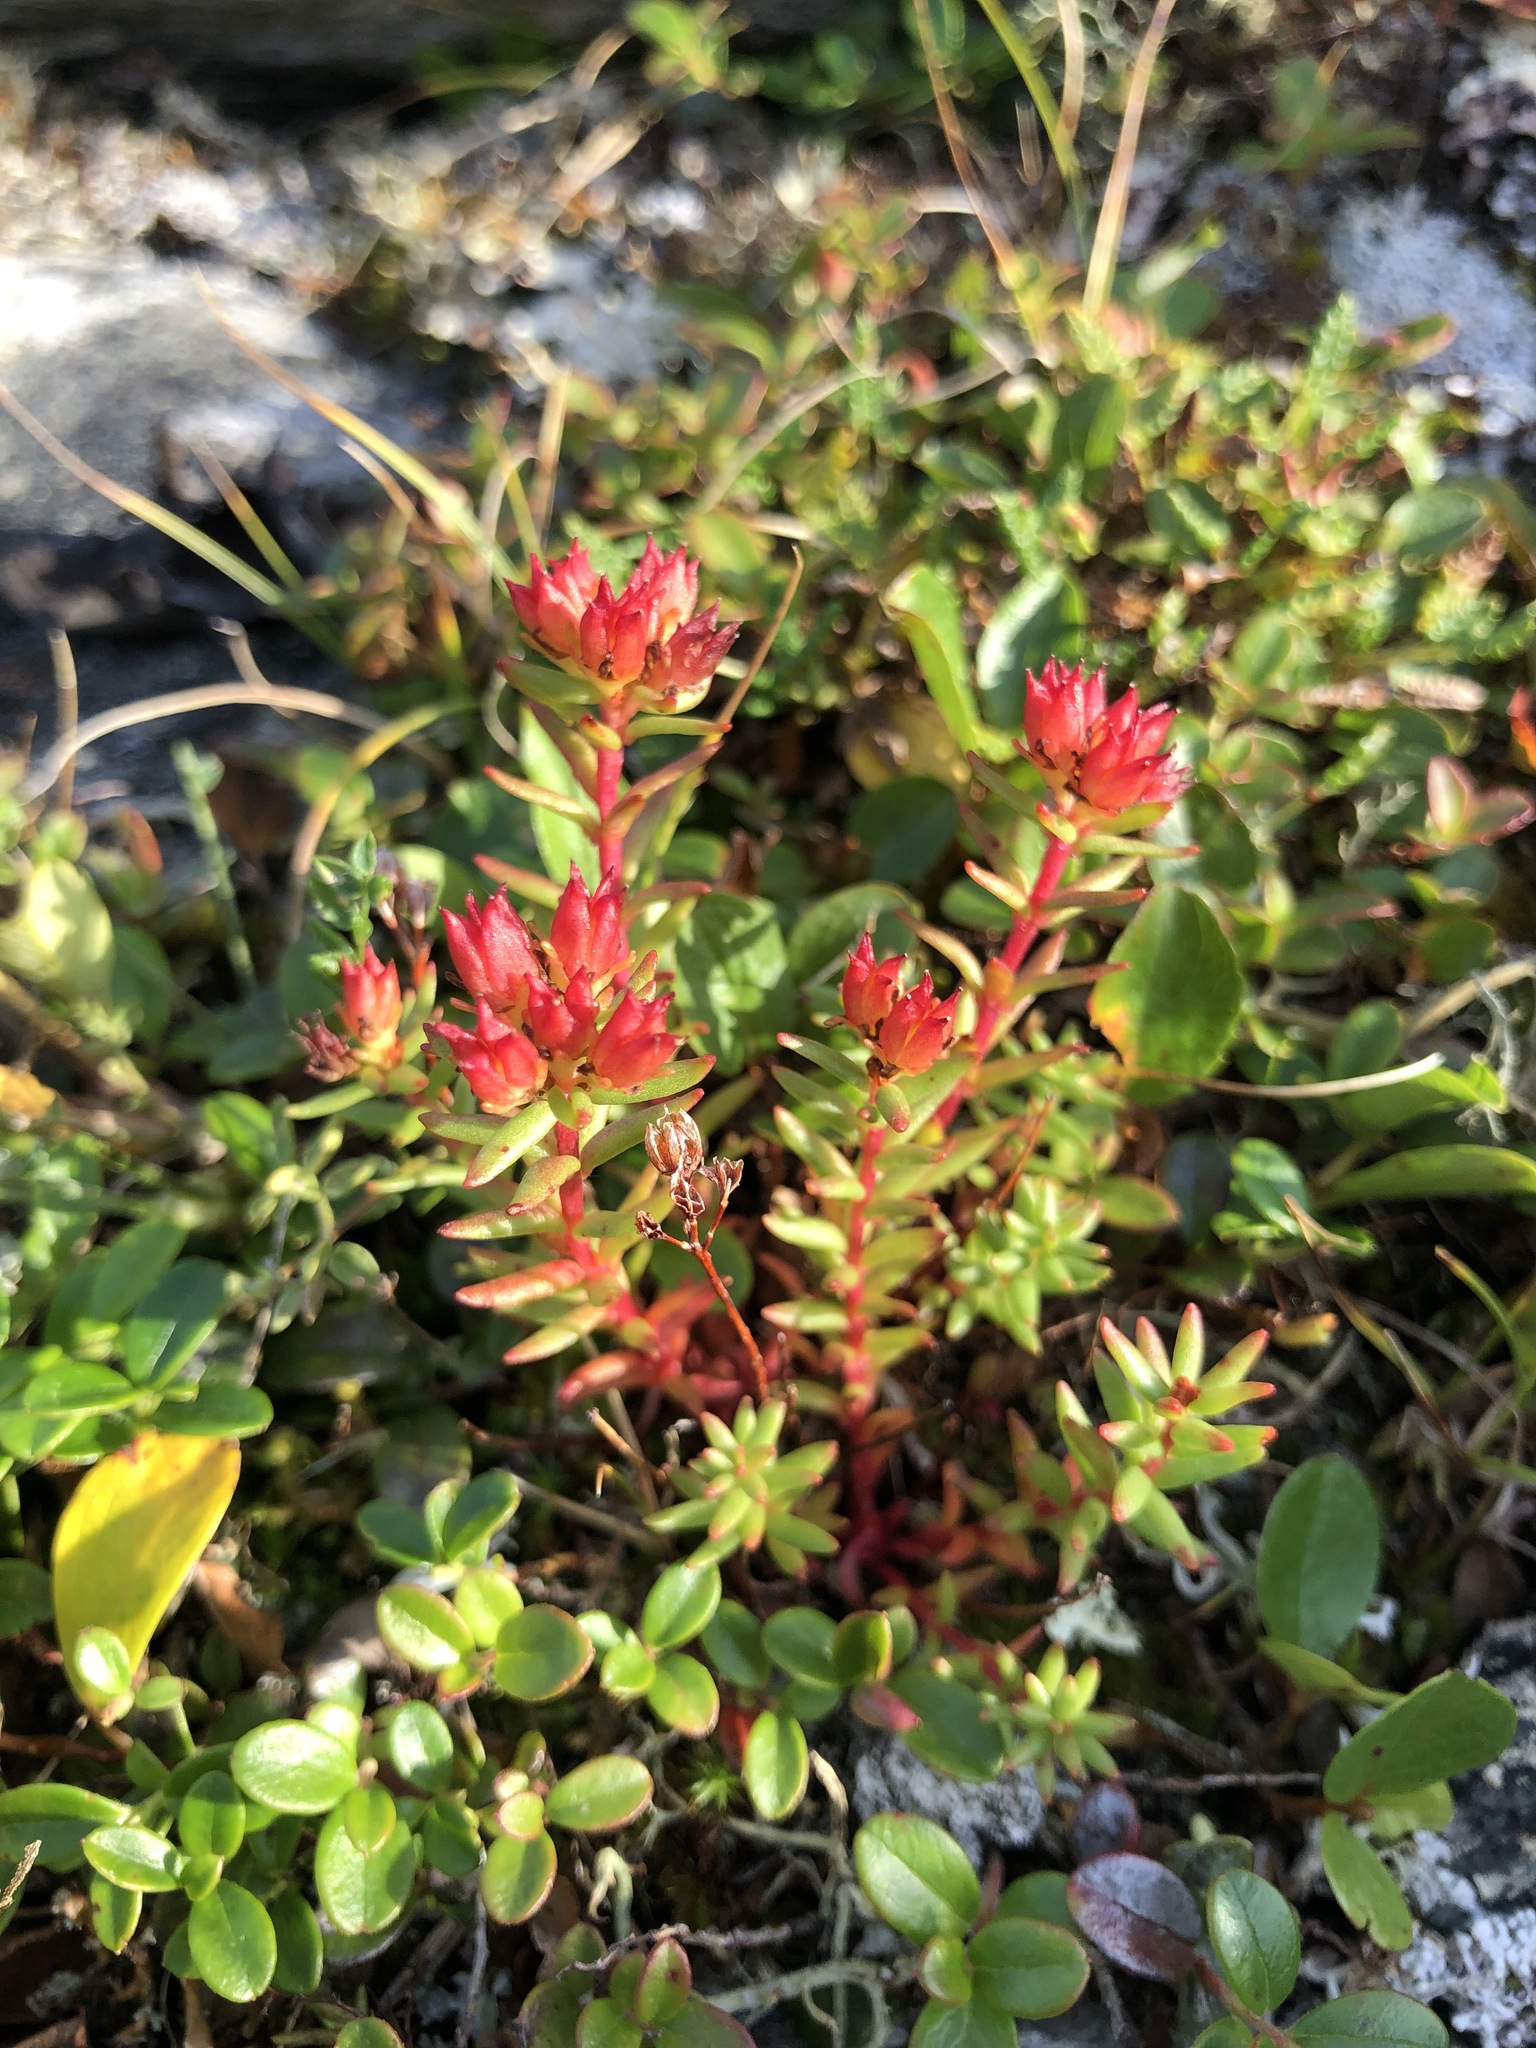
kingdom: Plantae
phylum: Tracheophyta
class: Magnoliopsida
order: Saxifragales
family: Crassulaceae
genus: Rhodiola
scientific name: Rhodiola quadrifida
